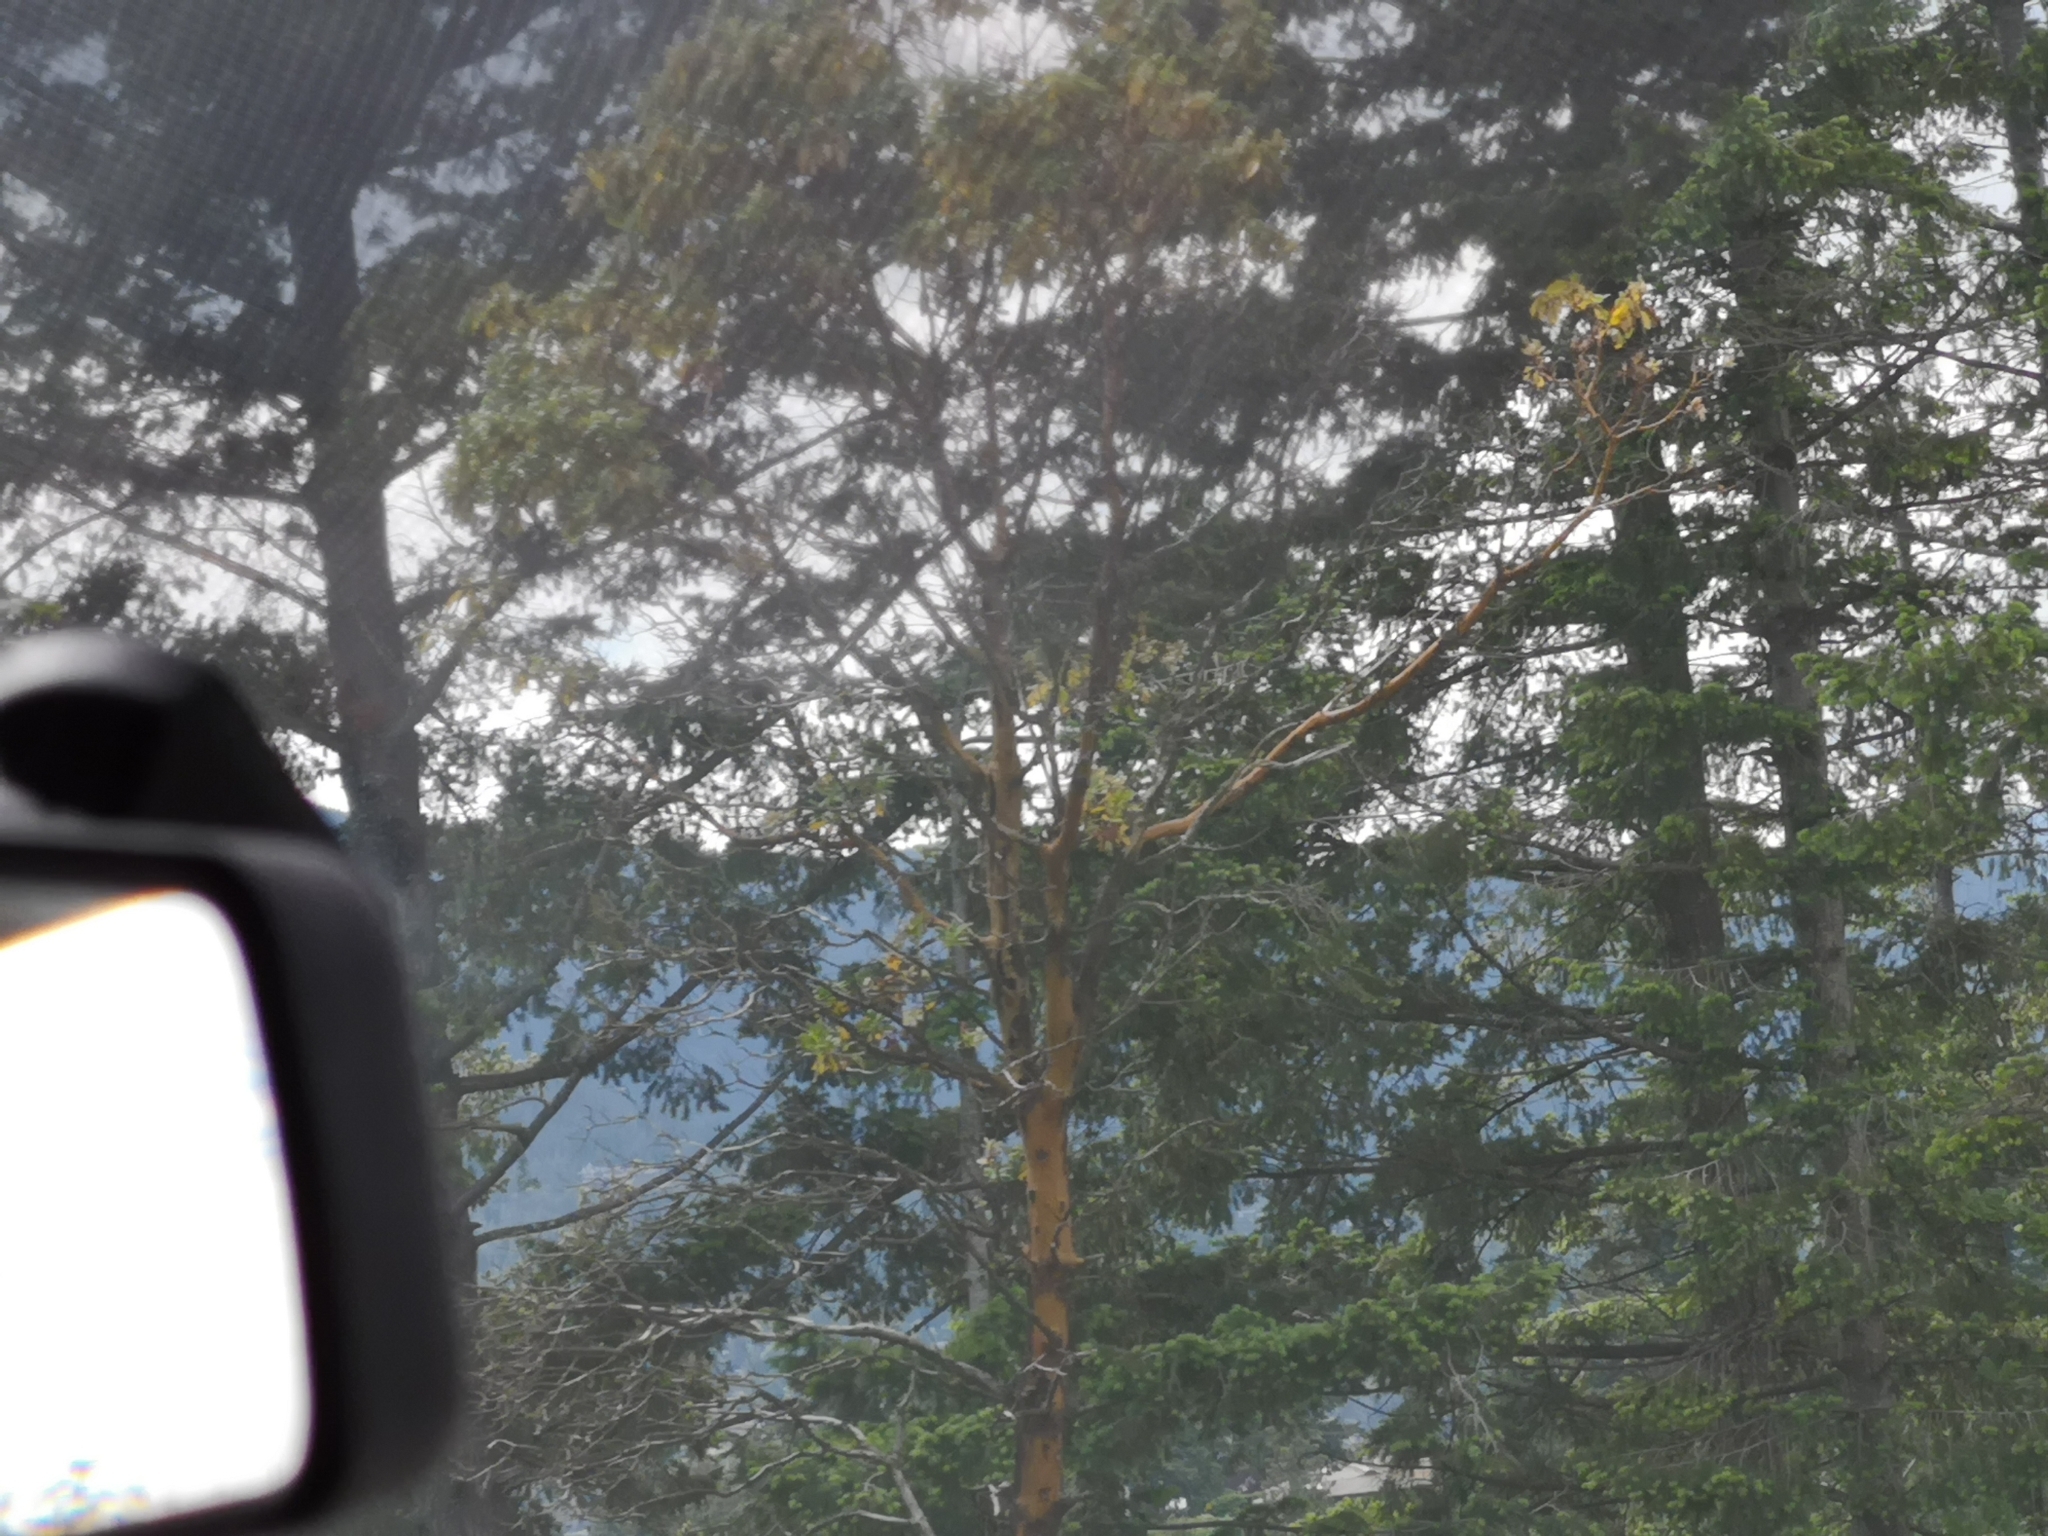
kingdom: Plantae
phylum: Tracheophyta
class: Magnoliopsida
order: Ericales
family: Ericaceae
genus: Arbutus
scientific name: Arbutus menziesii
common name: Pacific madrone
